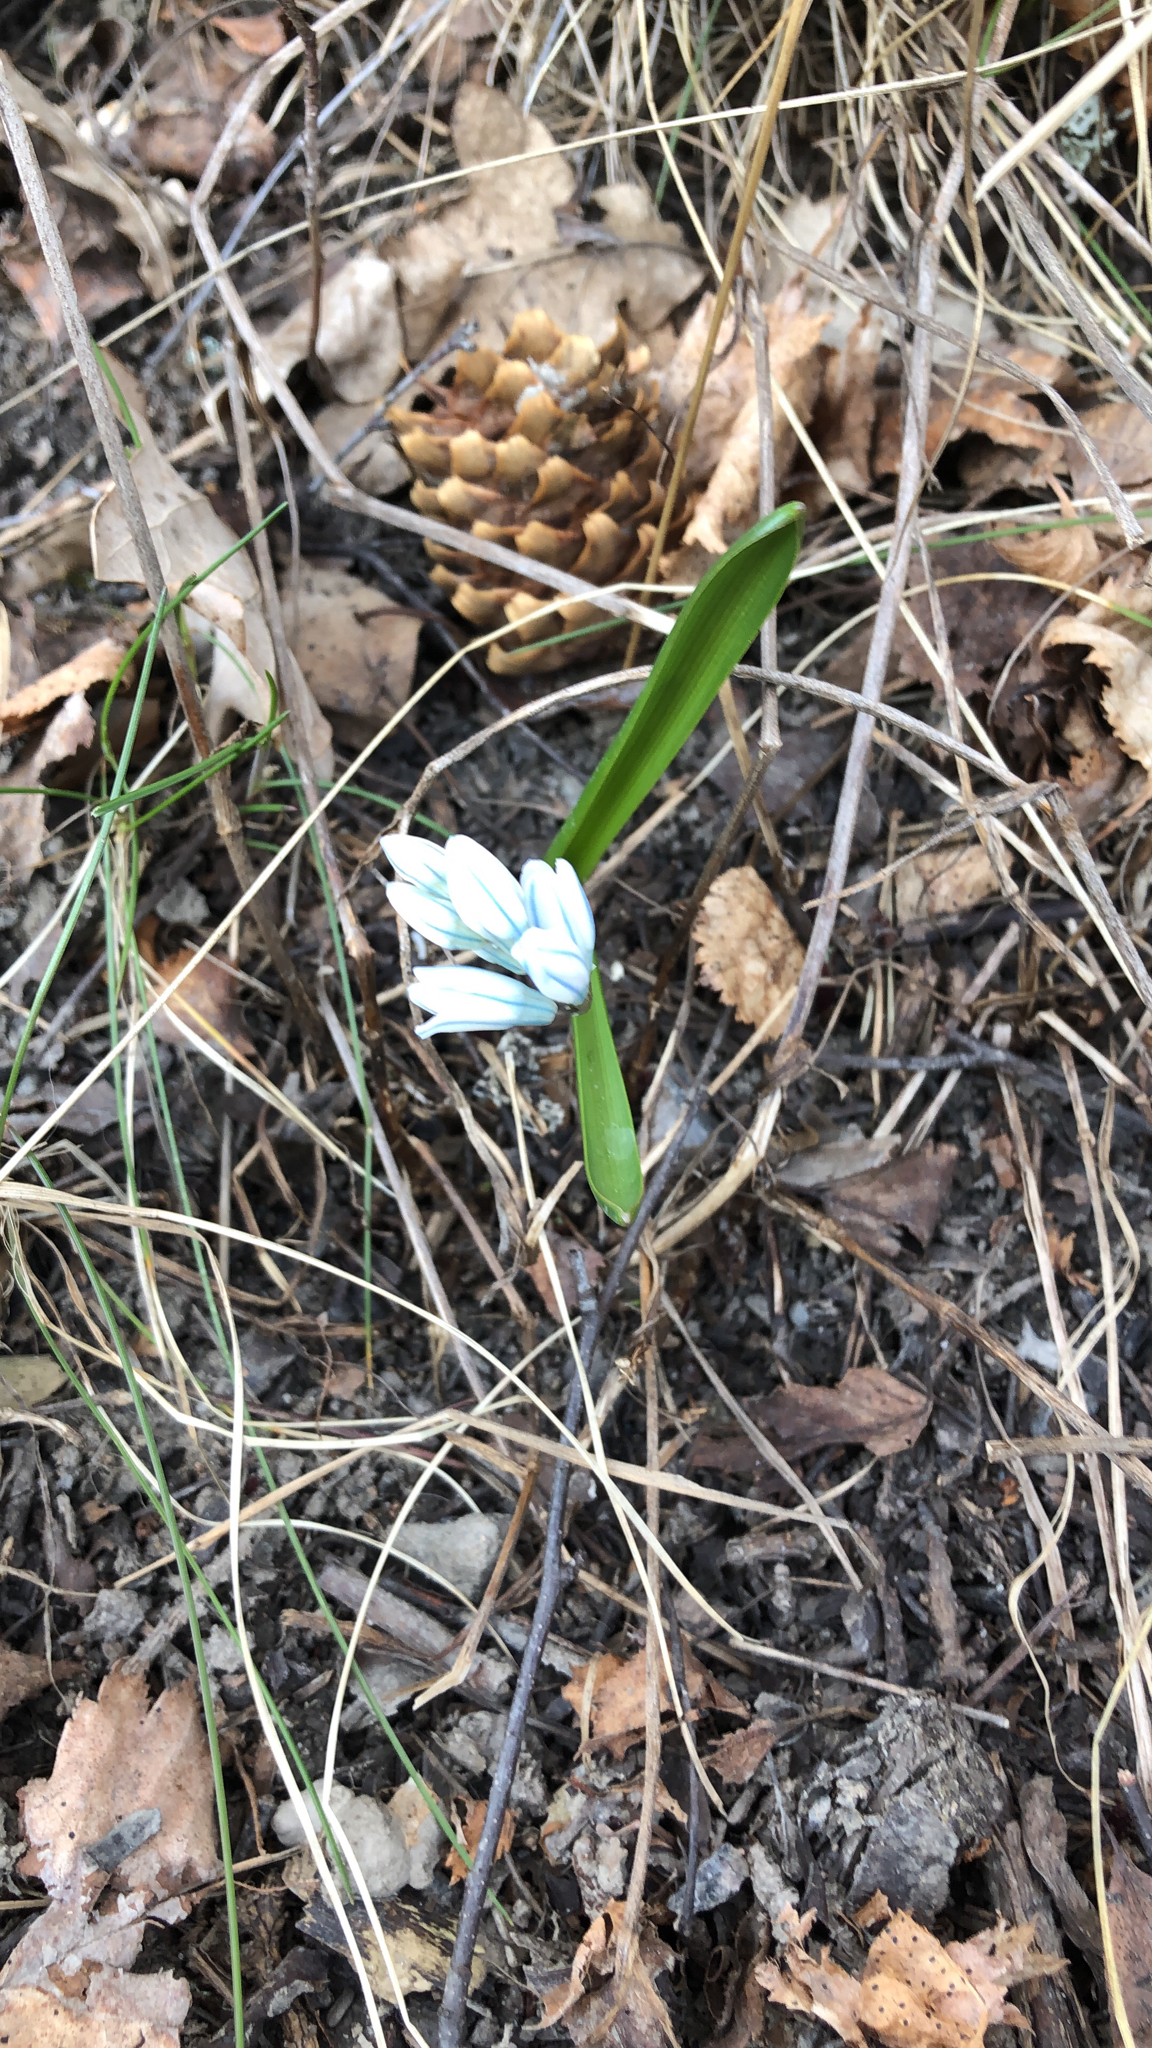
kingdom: Plantae
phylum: Tracheophyta
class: Liliopsida
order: Asparagales
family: Asparagaceae
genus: Puschkinia
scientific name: Puschkinia scilloides
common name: Striped squill
